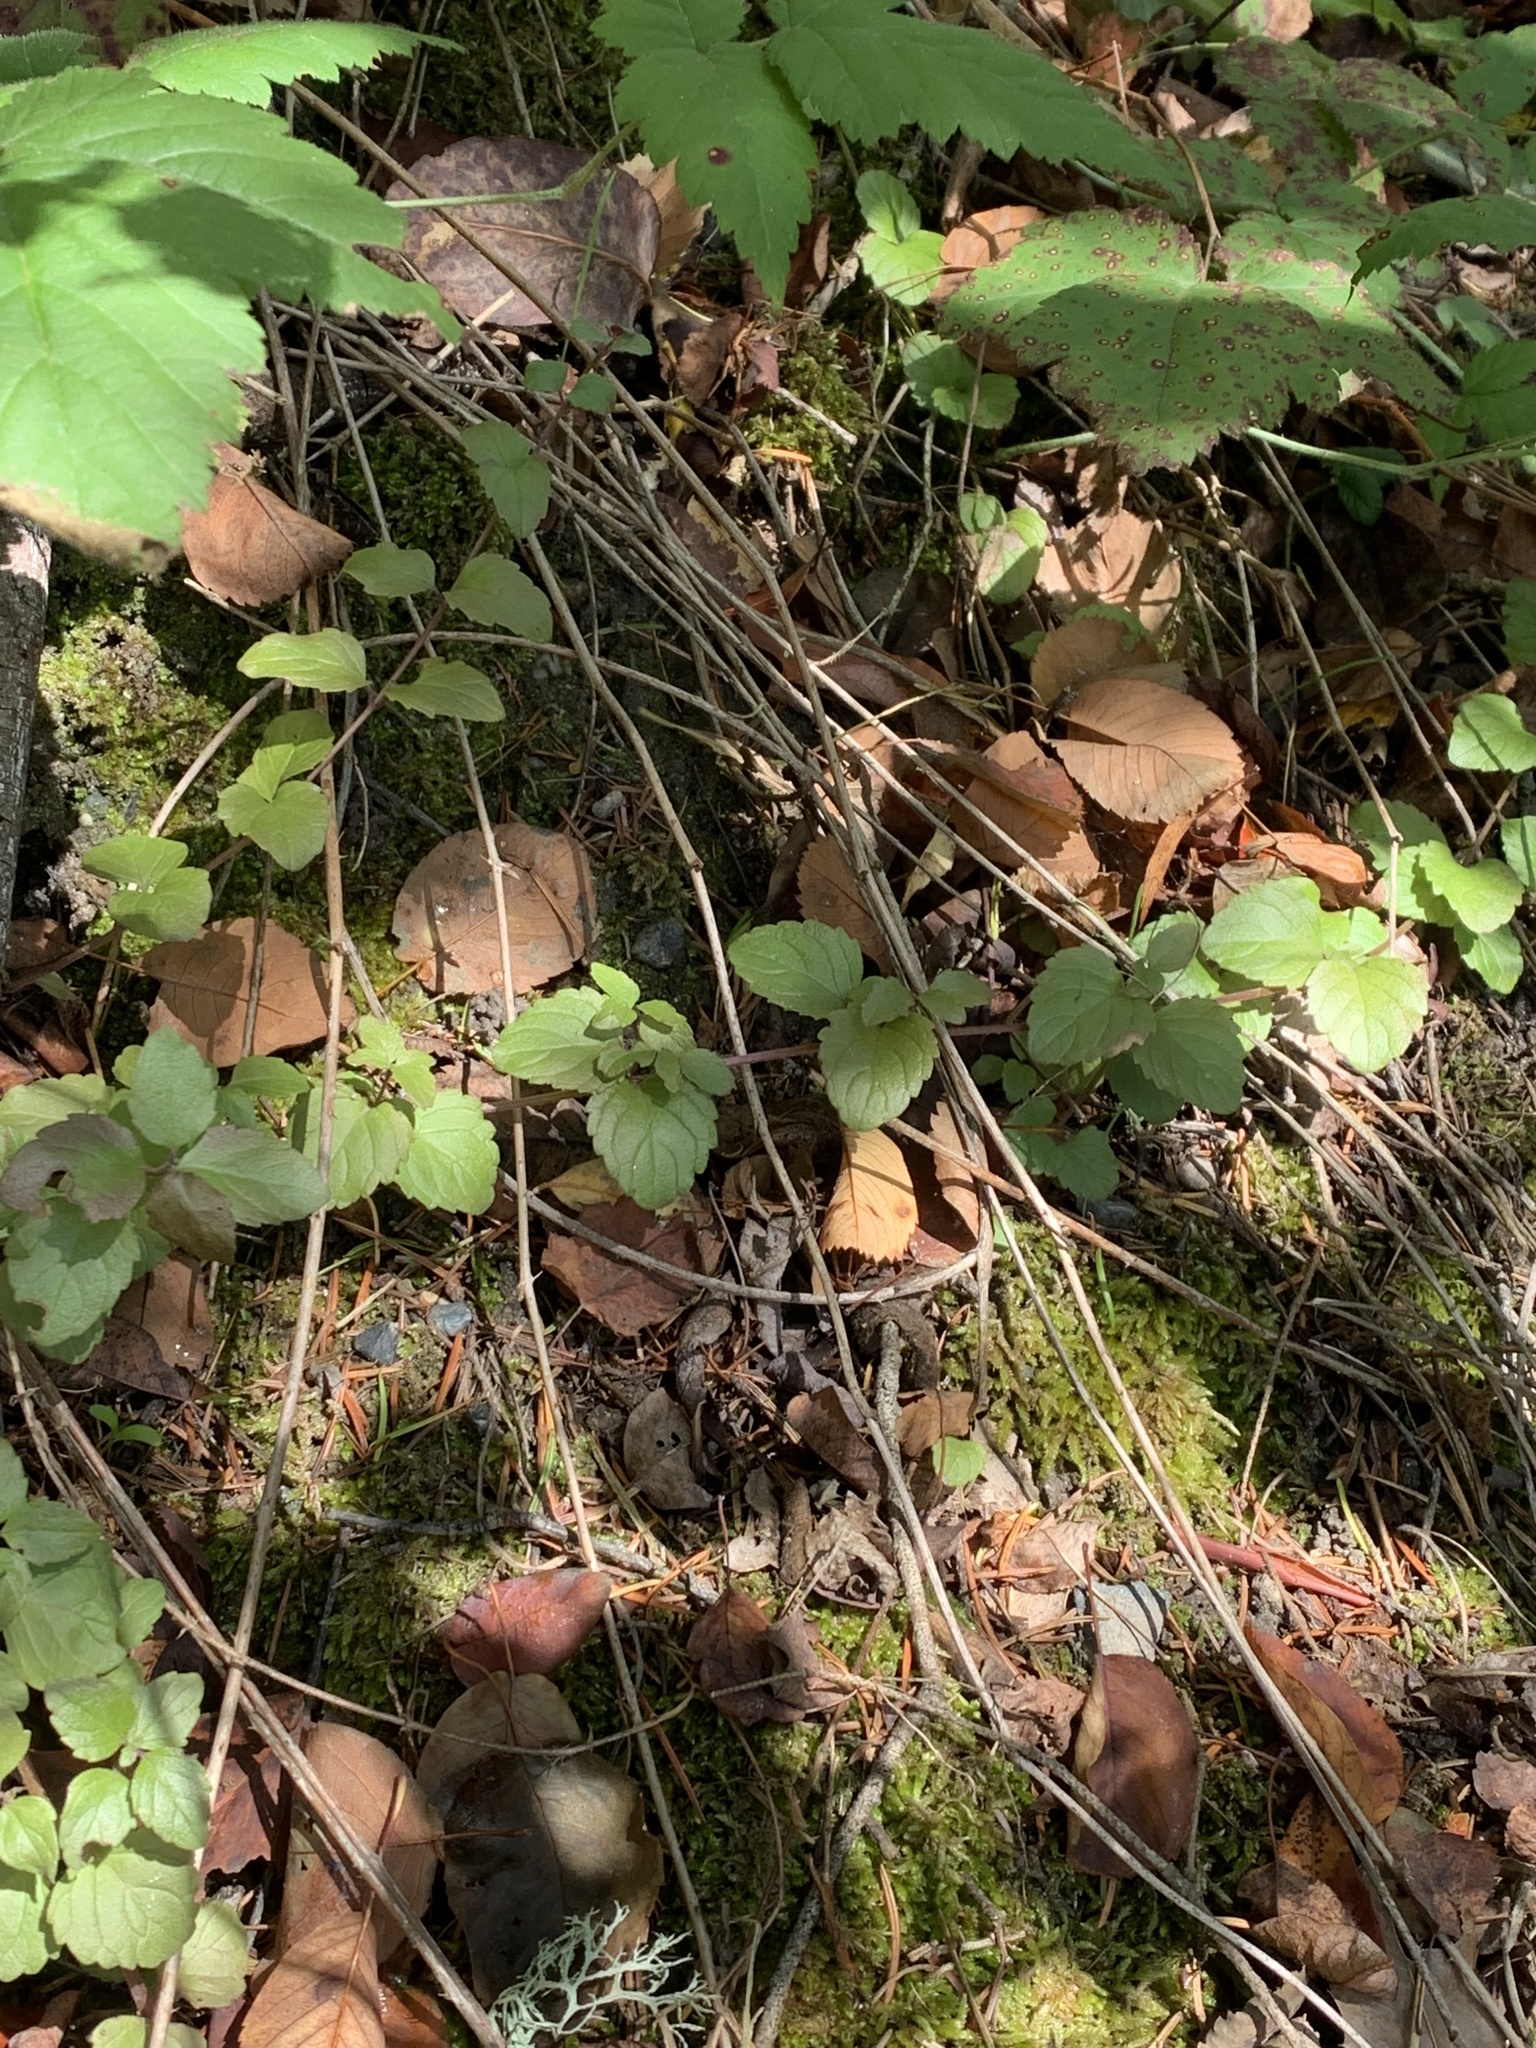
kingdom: Plantae
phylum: Tracheophyta
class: Magnoliopsida
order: Lamiales
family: Lamiaceae
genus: Micromeria
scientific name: Micromeria douglasii
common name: Yerba buena
